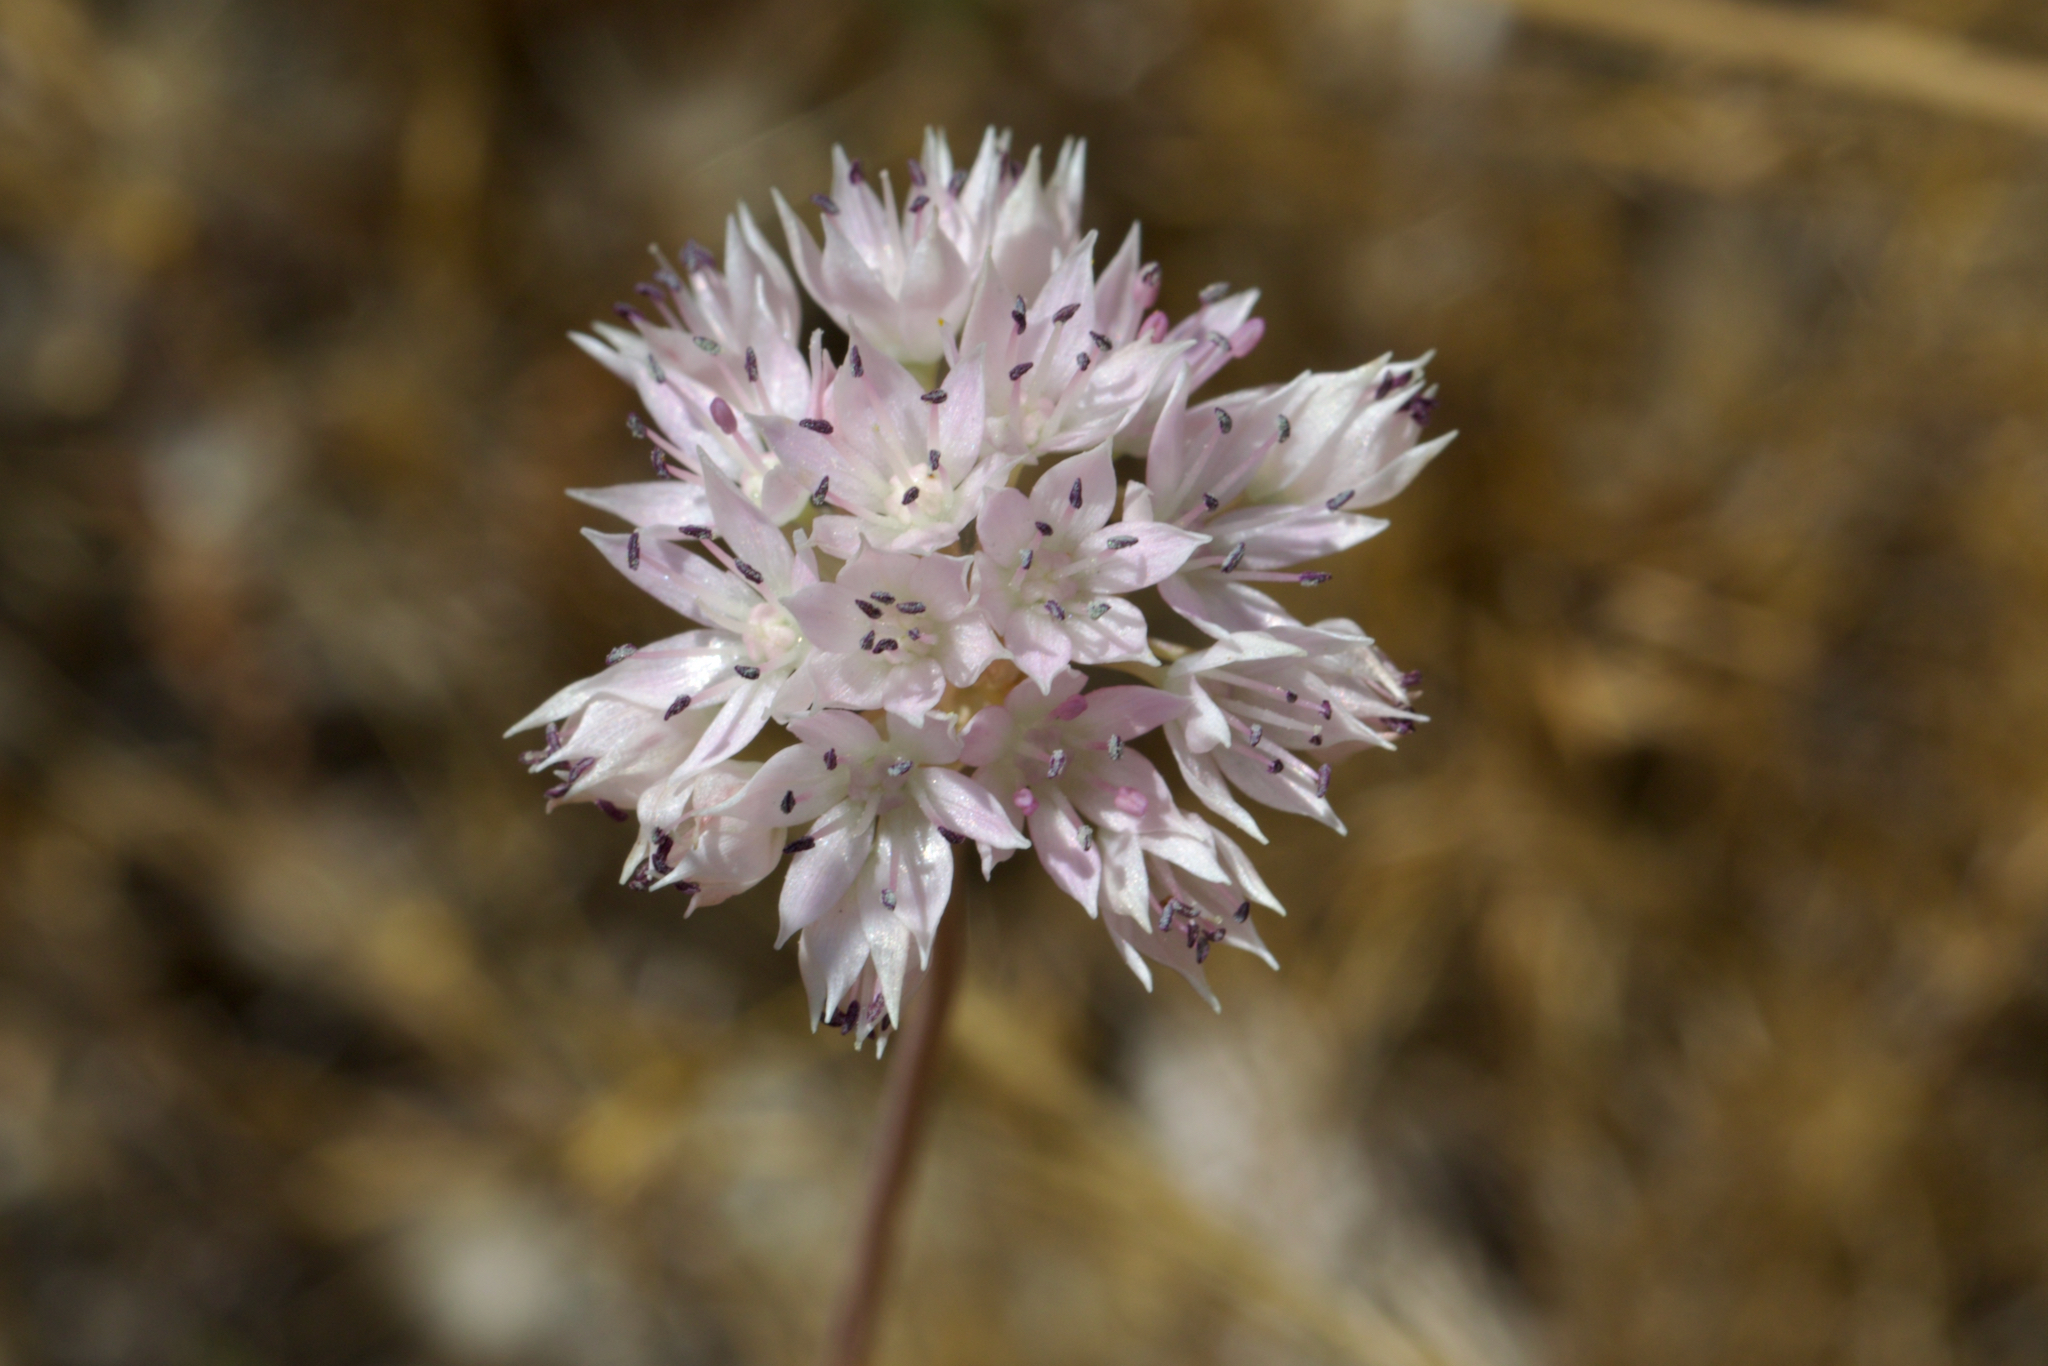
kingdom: Plantae
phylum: Tracheophyta
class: Liliopsida
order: Asparagales
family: Amaryllidaceae
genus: Allium
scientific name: Allium amplectens
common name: Narrow-leaved onion
